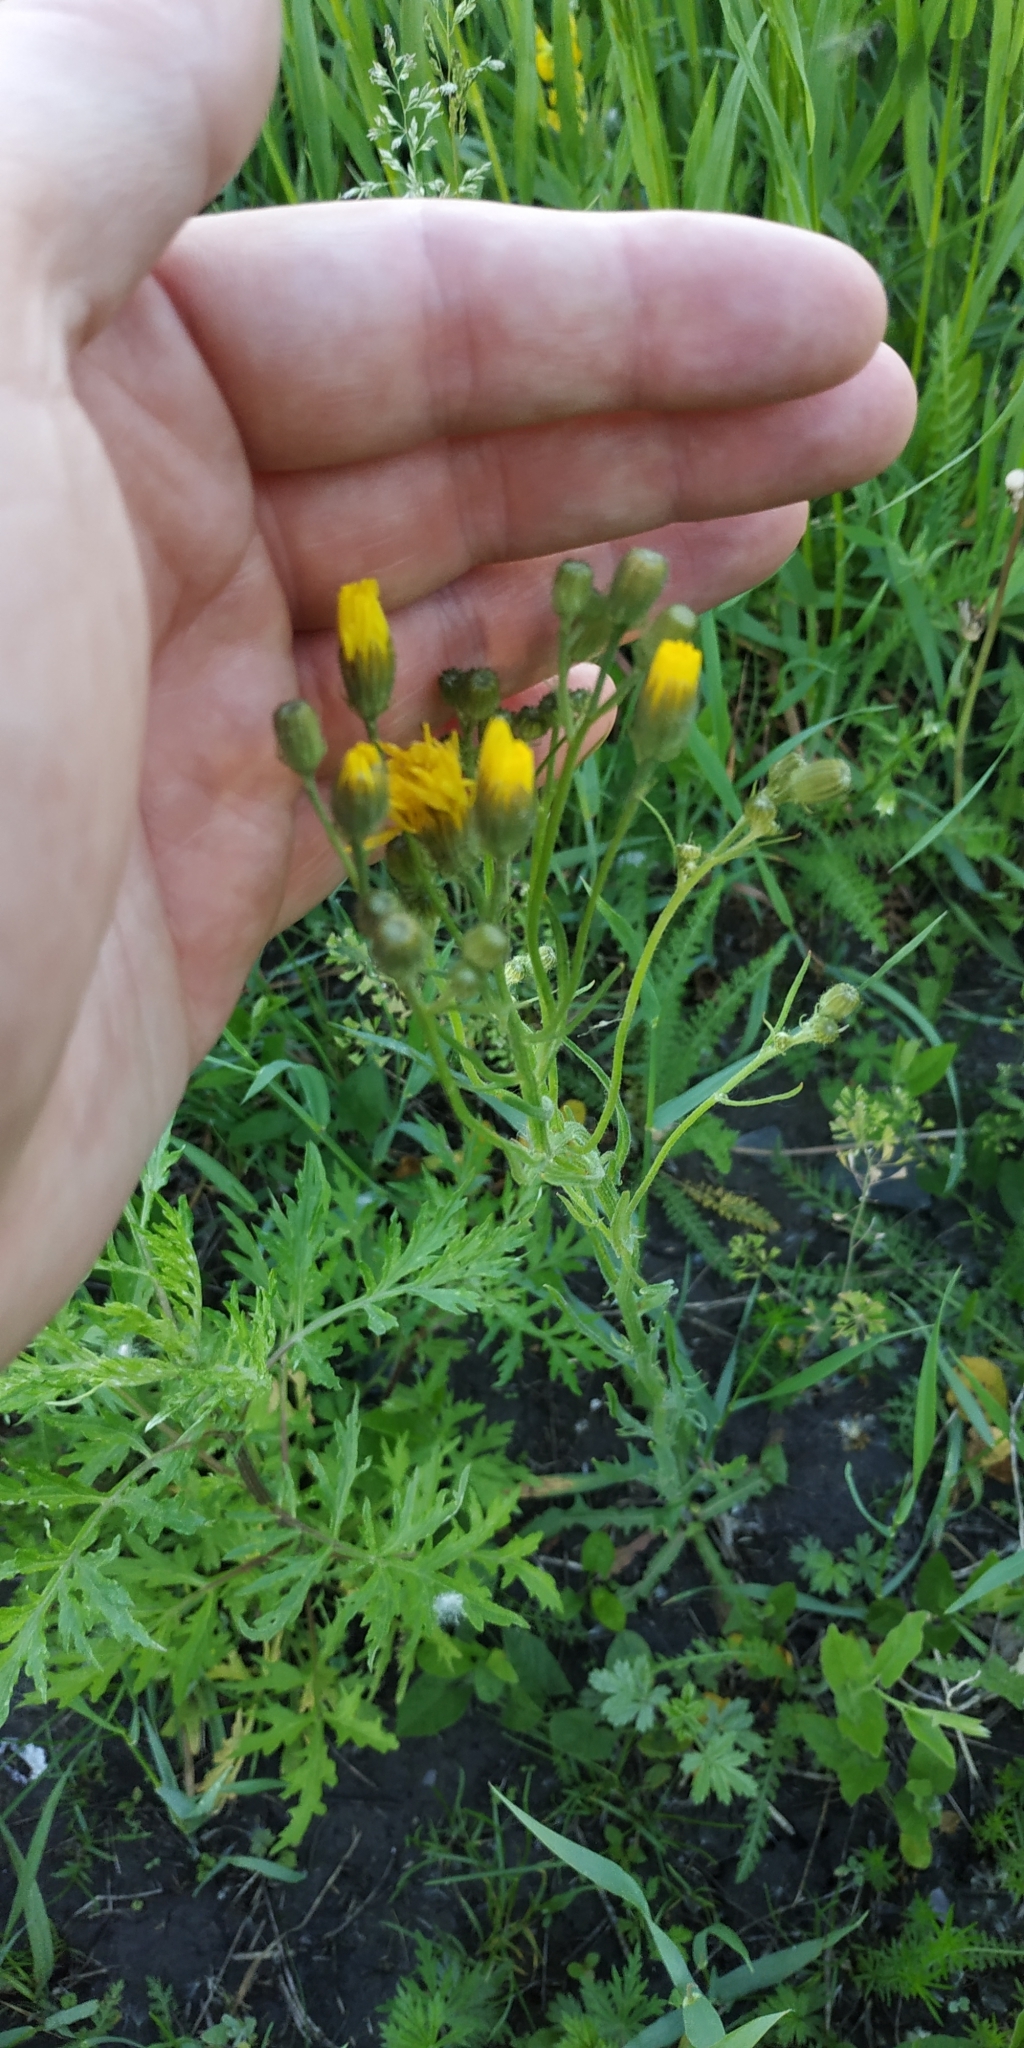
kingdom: Plantae
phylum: Tracheophyta
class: Magnoliopsida
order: Asterales
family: Asteraceae
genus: Crepis
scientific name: Crepis tectorum
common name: Narrow-leaved hawk's-beard
